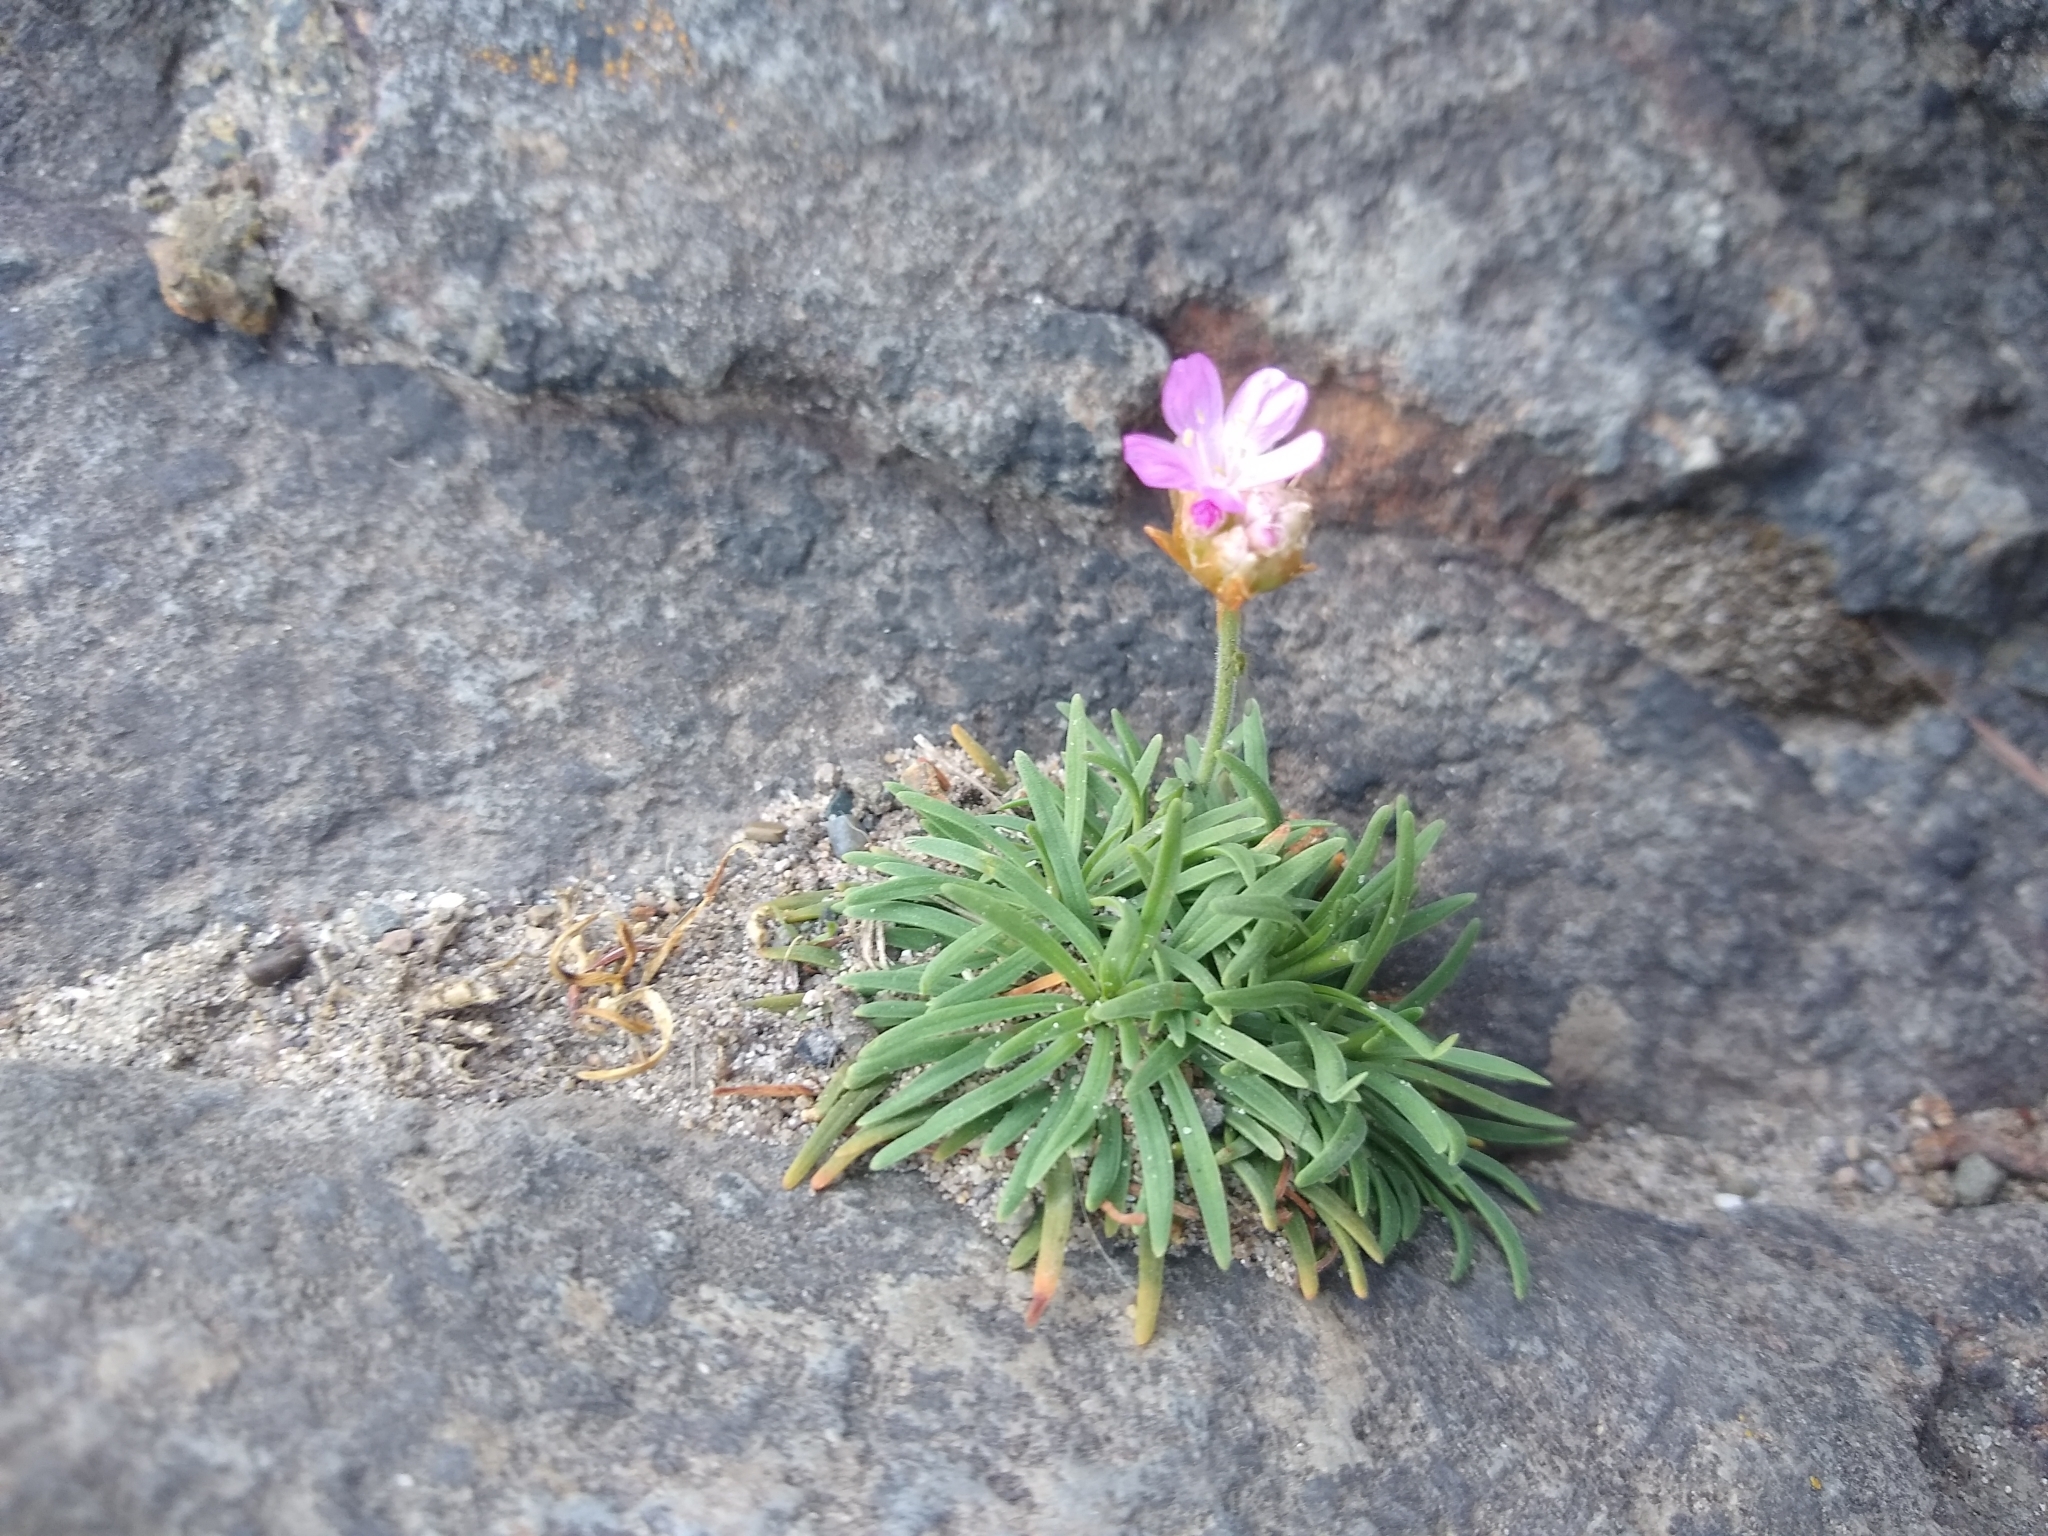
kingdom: Plantae
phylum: Tracheophyta
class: Magnoliopsida
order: Caryophyllales
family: Plumbaginaceae
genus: Armeria
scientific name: Armeria maritima
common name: Thrift
